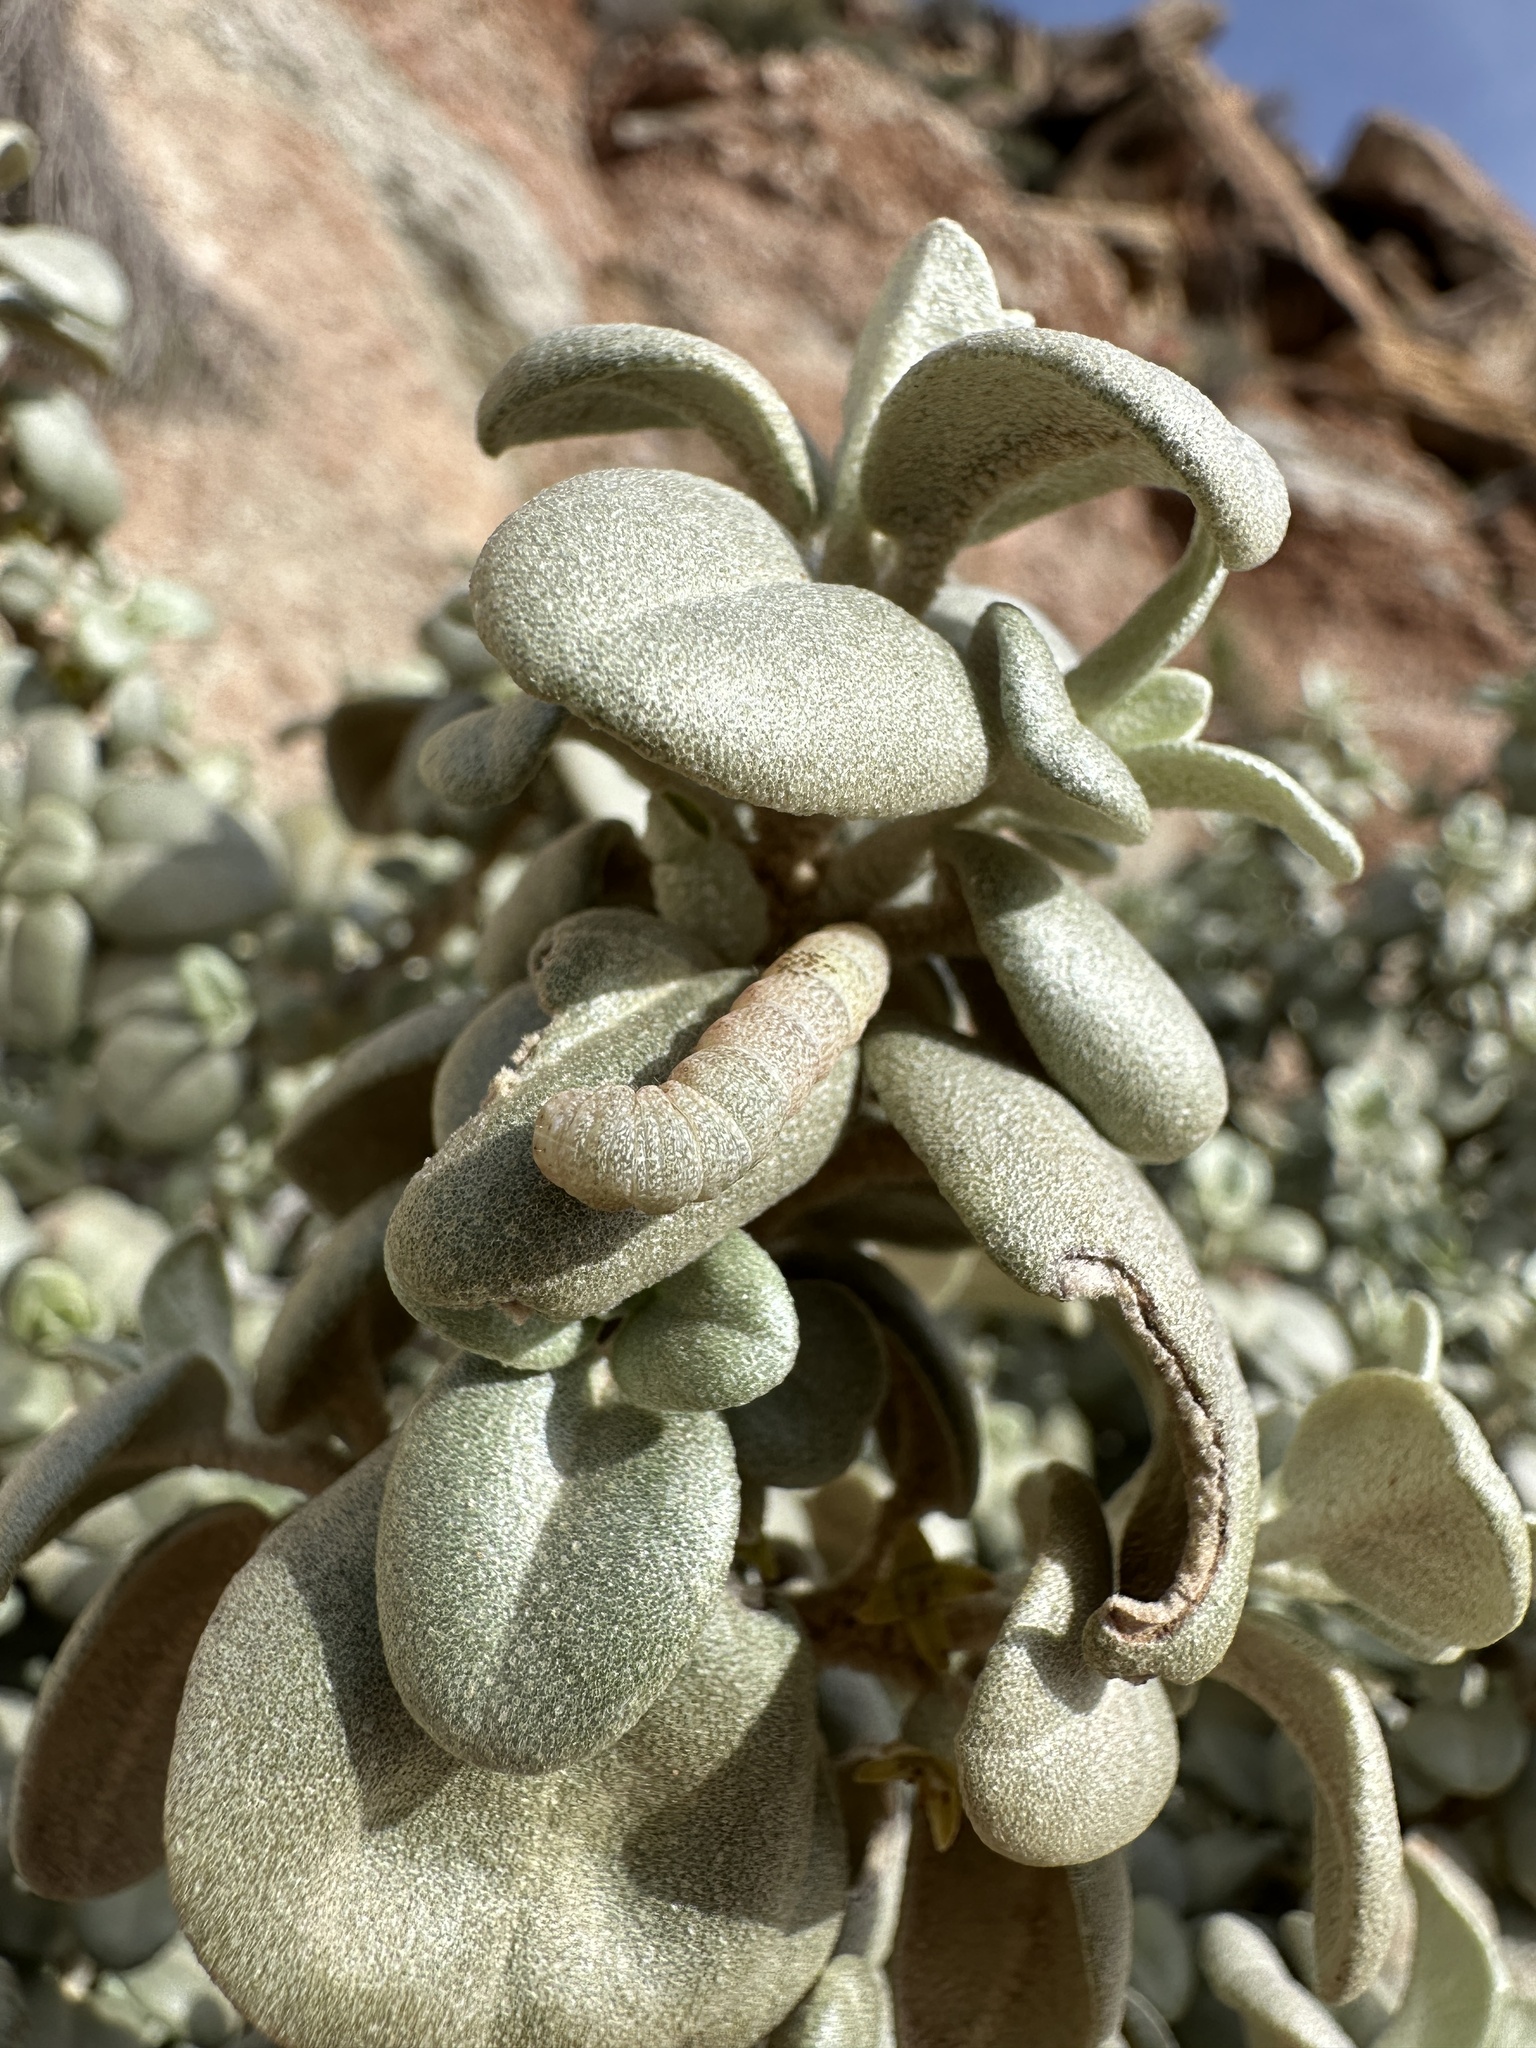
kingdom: Plantae
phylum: Tracheophyta
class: Magnoliopsida
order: Rosales
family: Elaeagnaceae
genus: Shepherdia
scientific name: Shepherdia rotundifolia
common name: Silverscale
